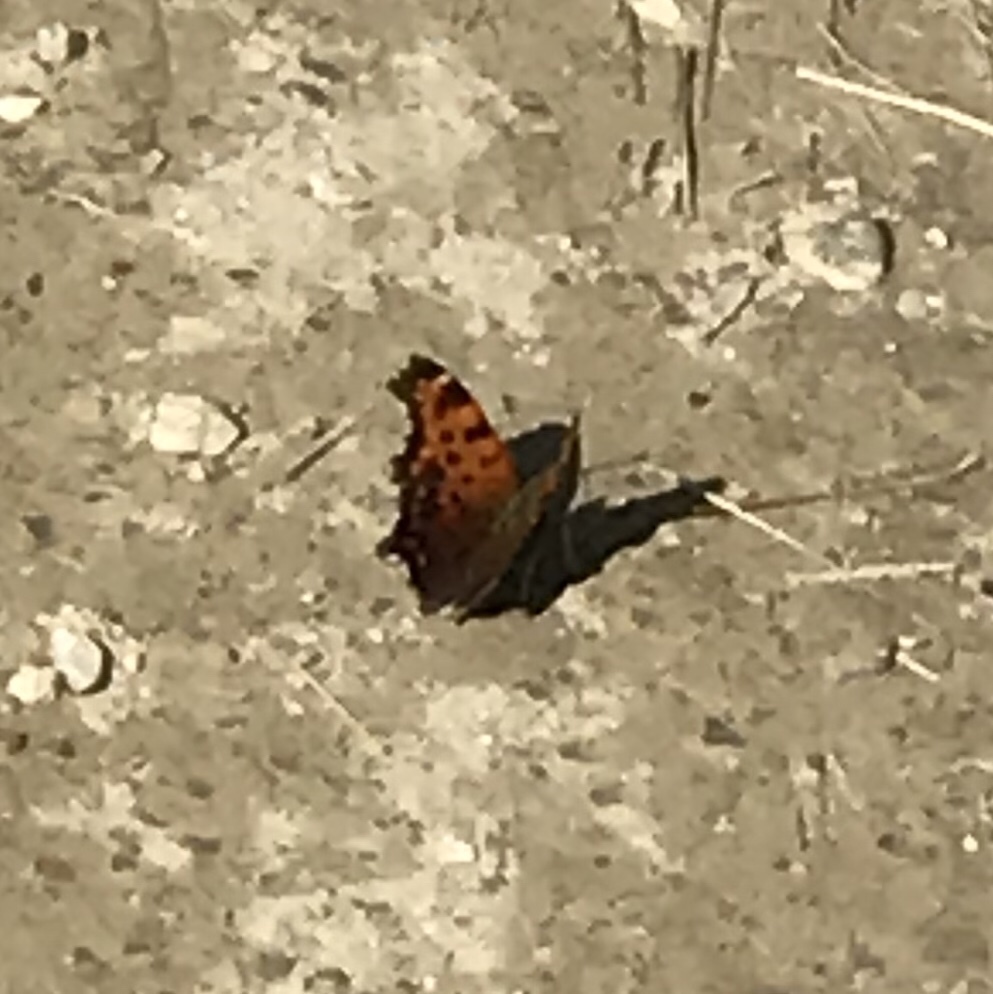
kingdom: Animalia
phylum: Arthropoda
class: Insecta
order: Lepidoptera
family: Nymphalidae
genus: Polygonia
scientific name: Polygonia comma
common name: Eastern comma
